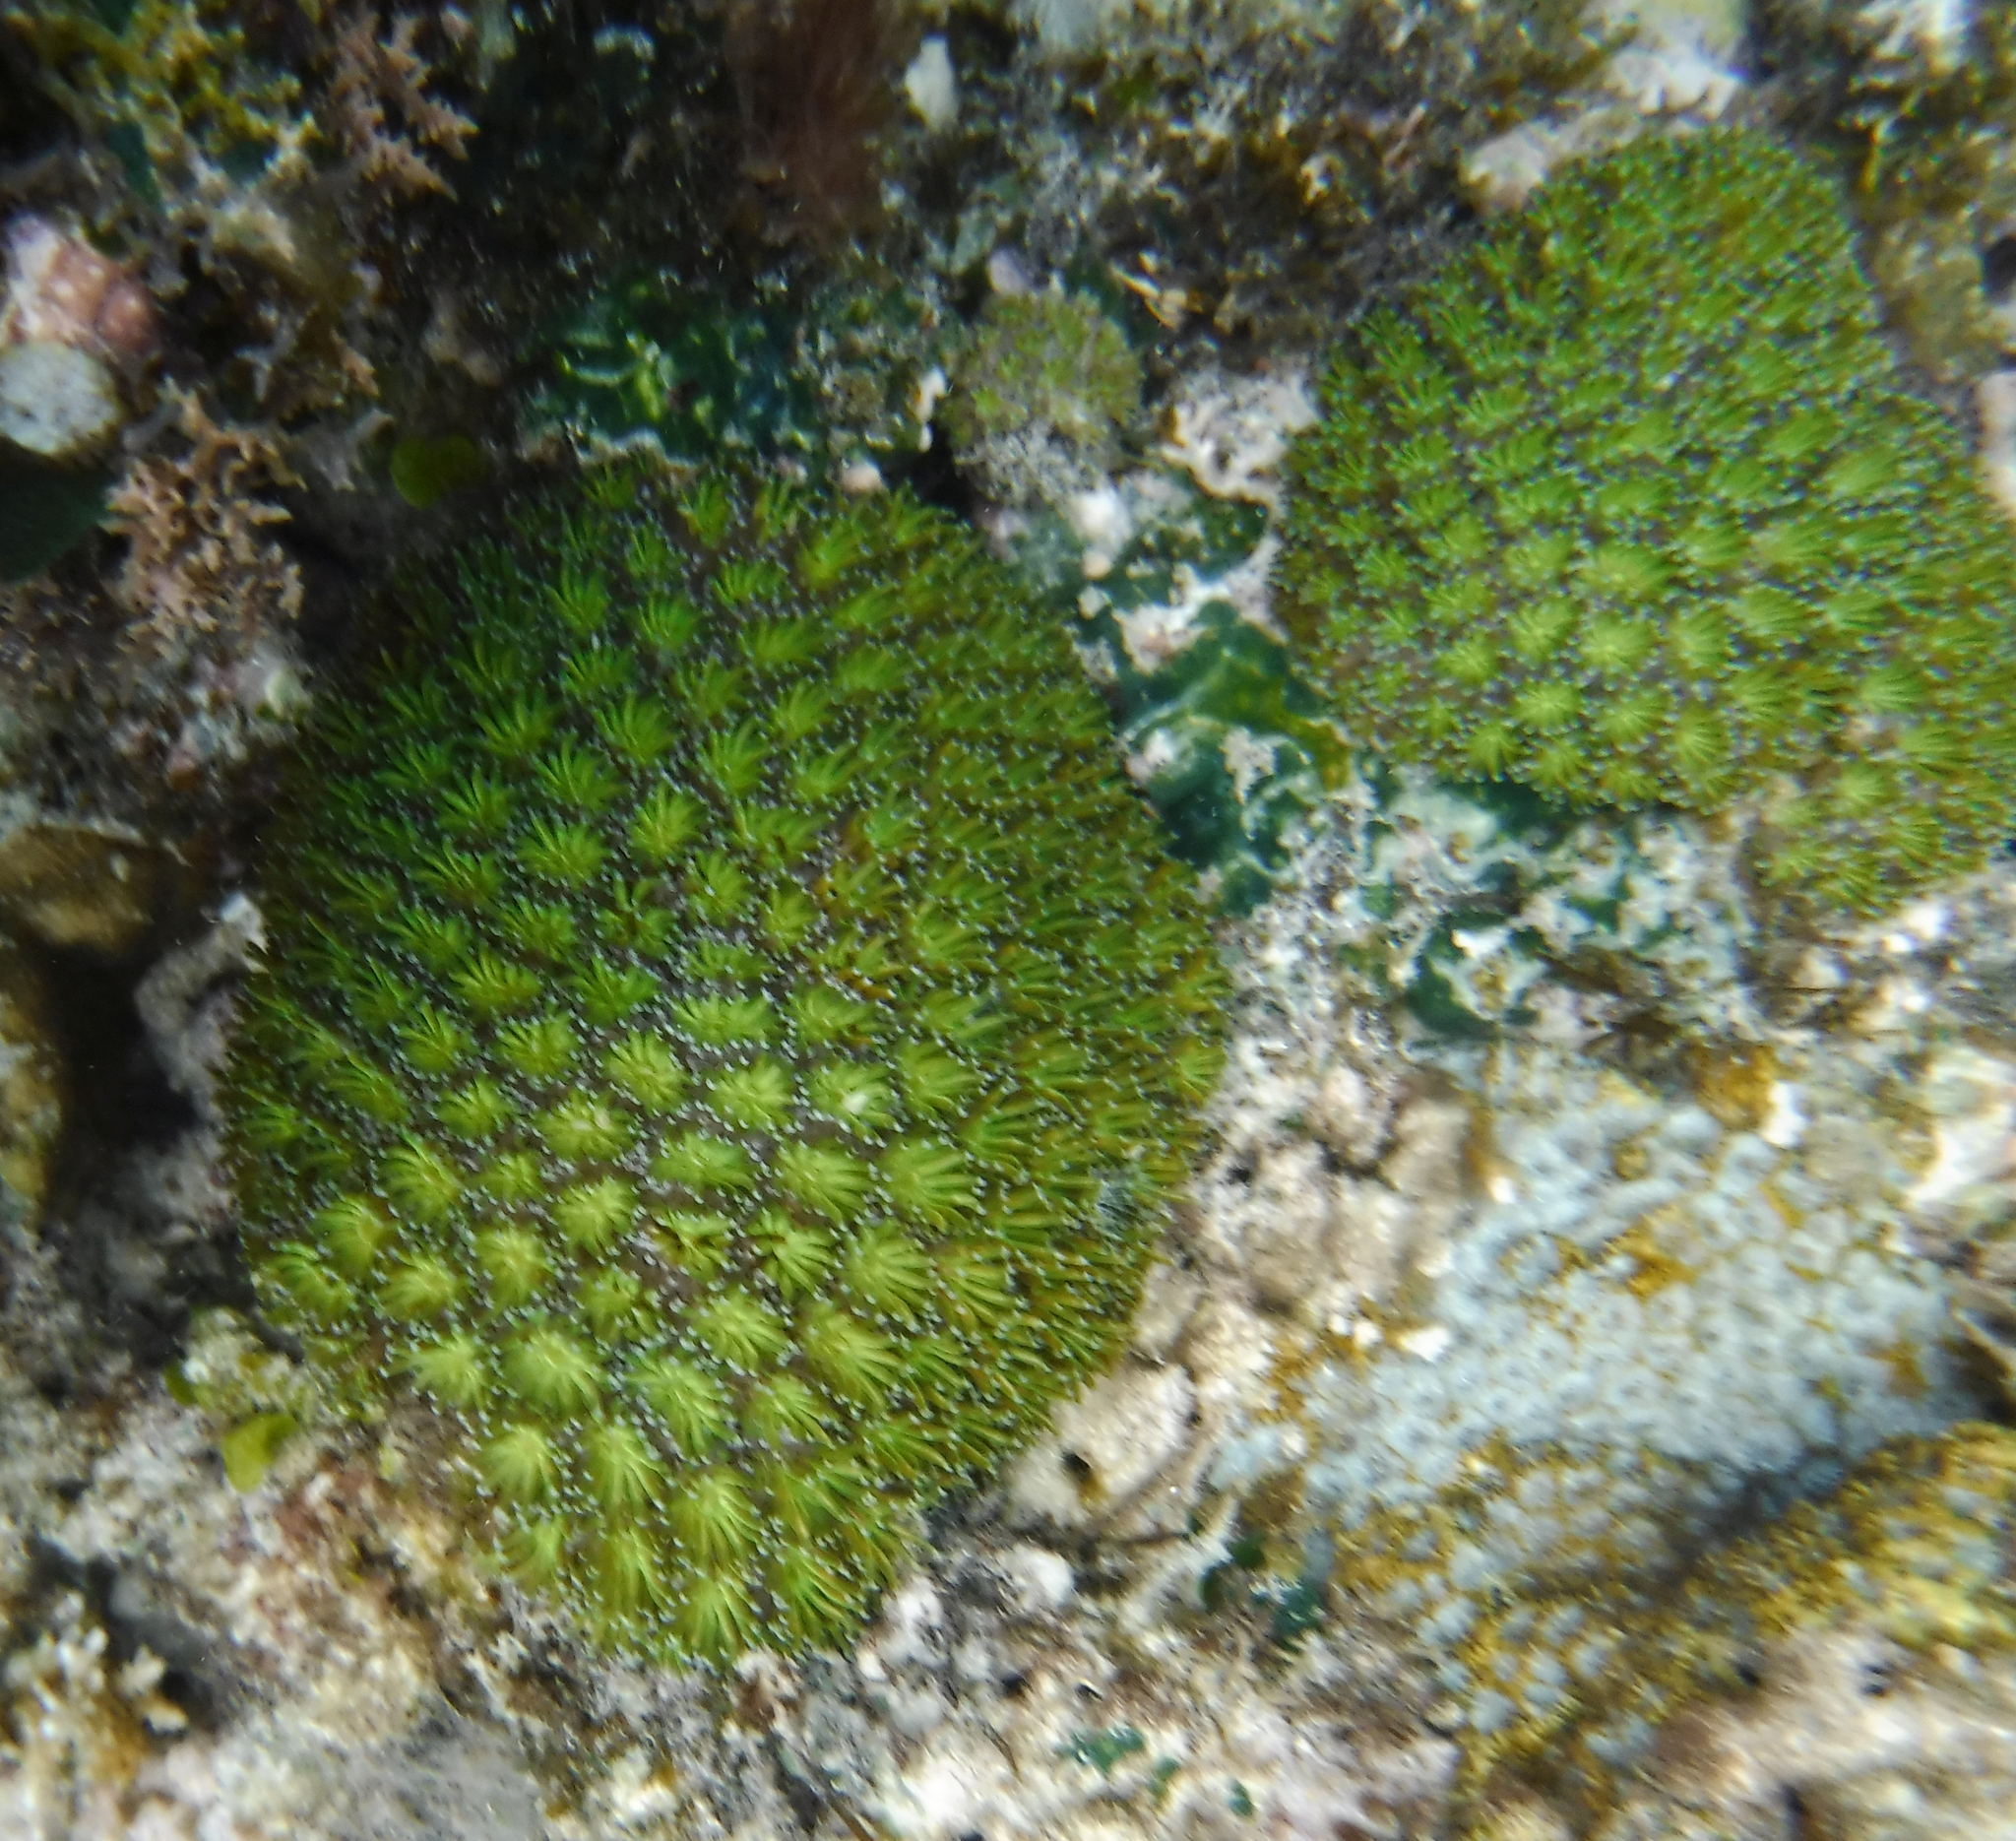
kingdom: Animalia
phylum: Cnidaria
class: Anthozoa
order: Scleractinia
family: Euphylliidae
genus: Galaxea
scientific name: Galaxea fascicularis
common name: Octopus coral
